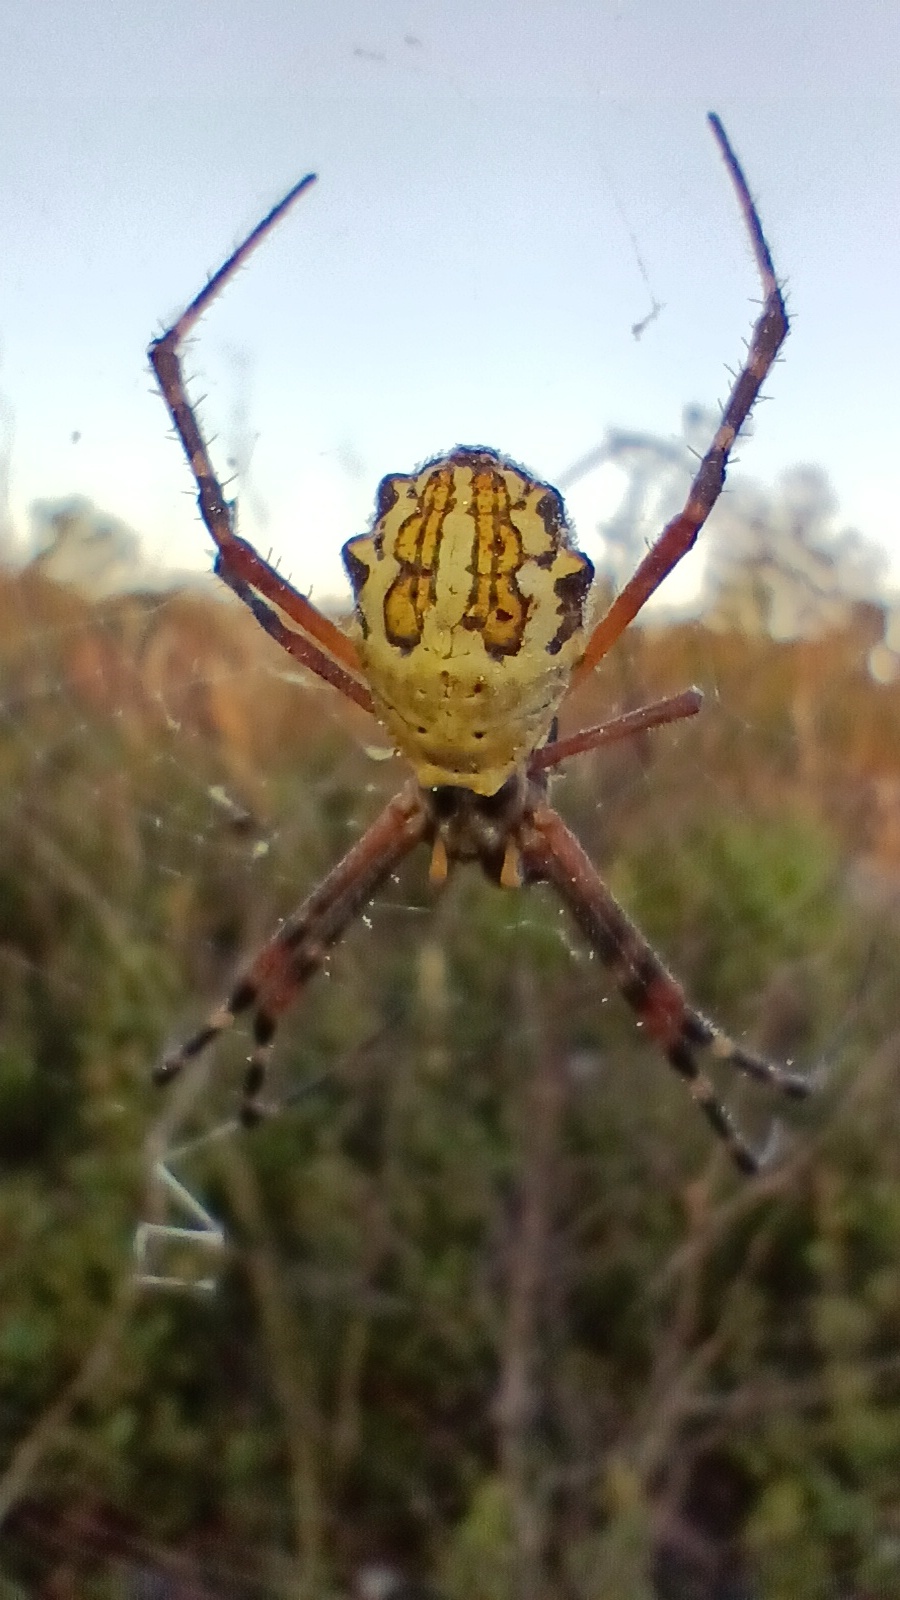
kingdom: Animalia
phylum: Arthropoda
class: Arachnida
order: Araneae
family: Araneidae
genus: Argiope
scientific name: Argiope florida
